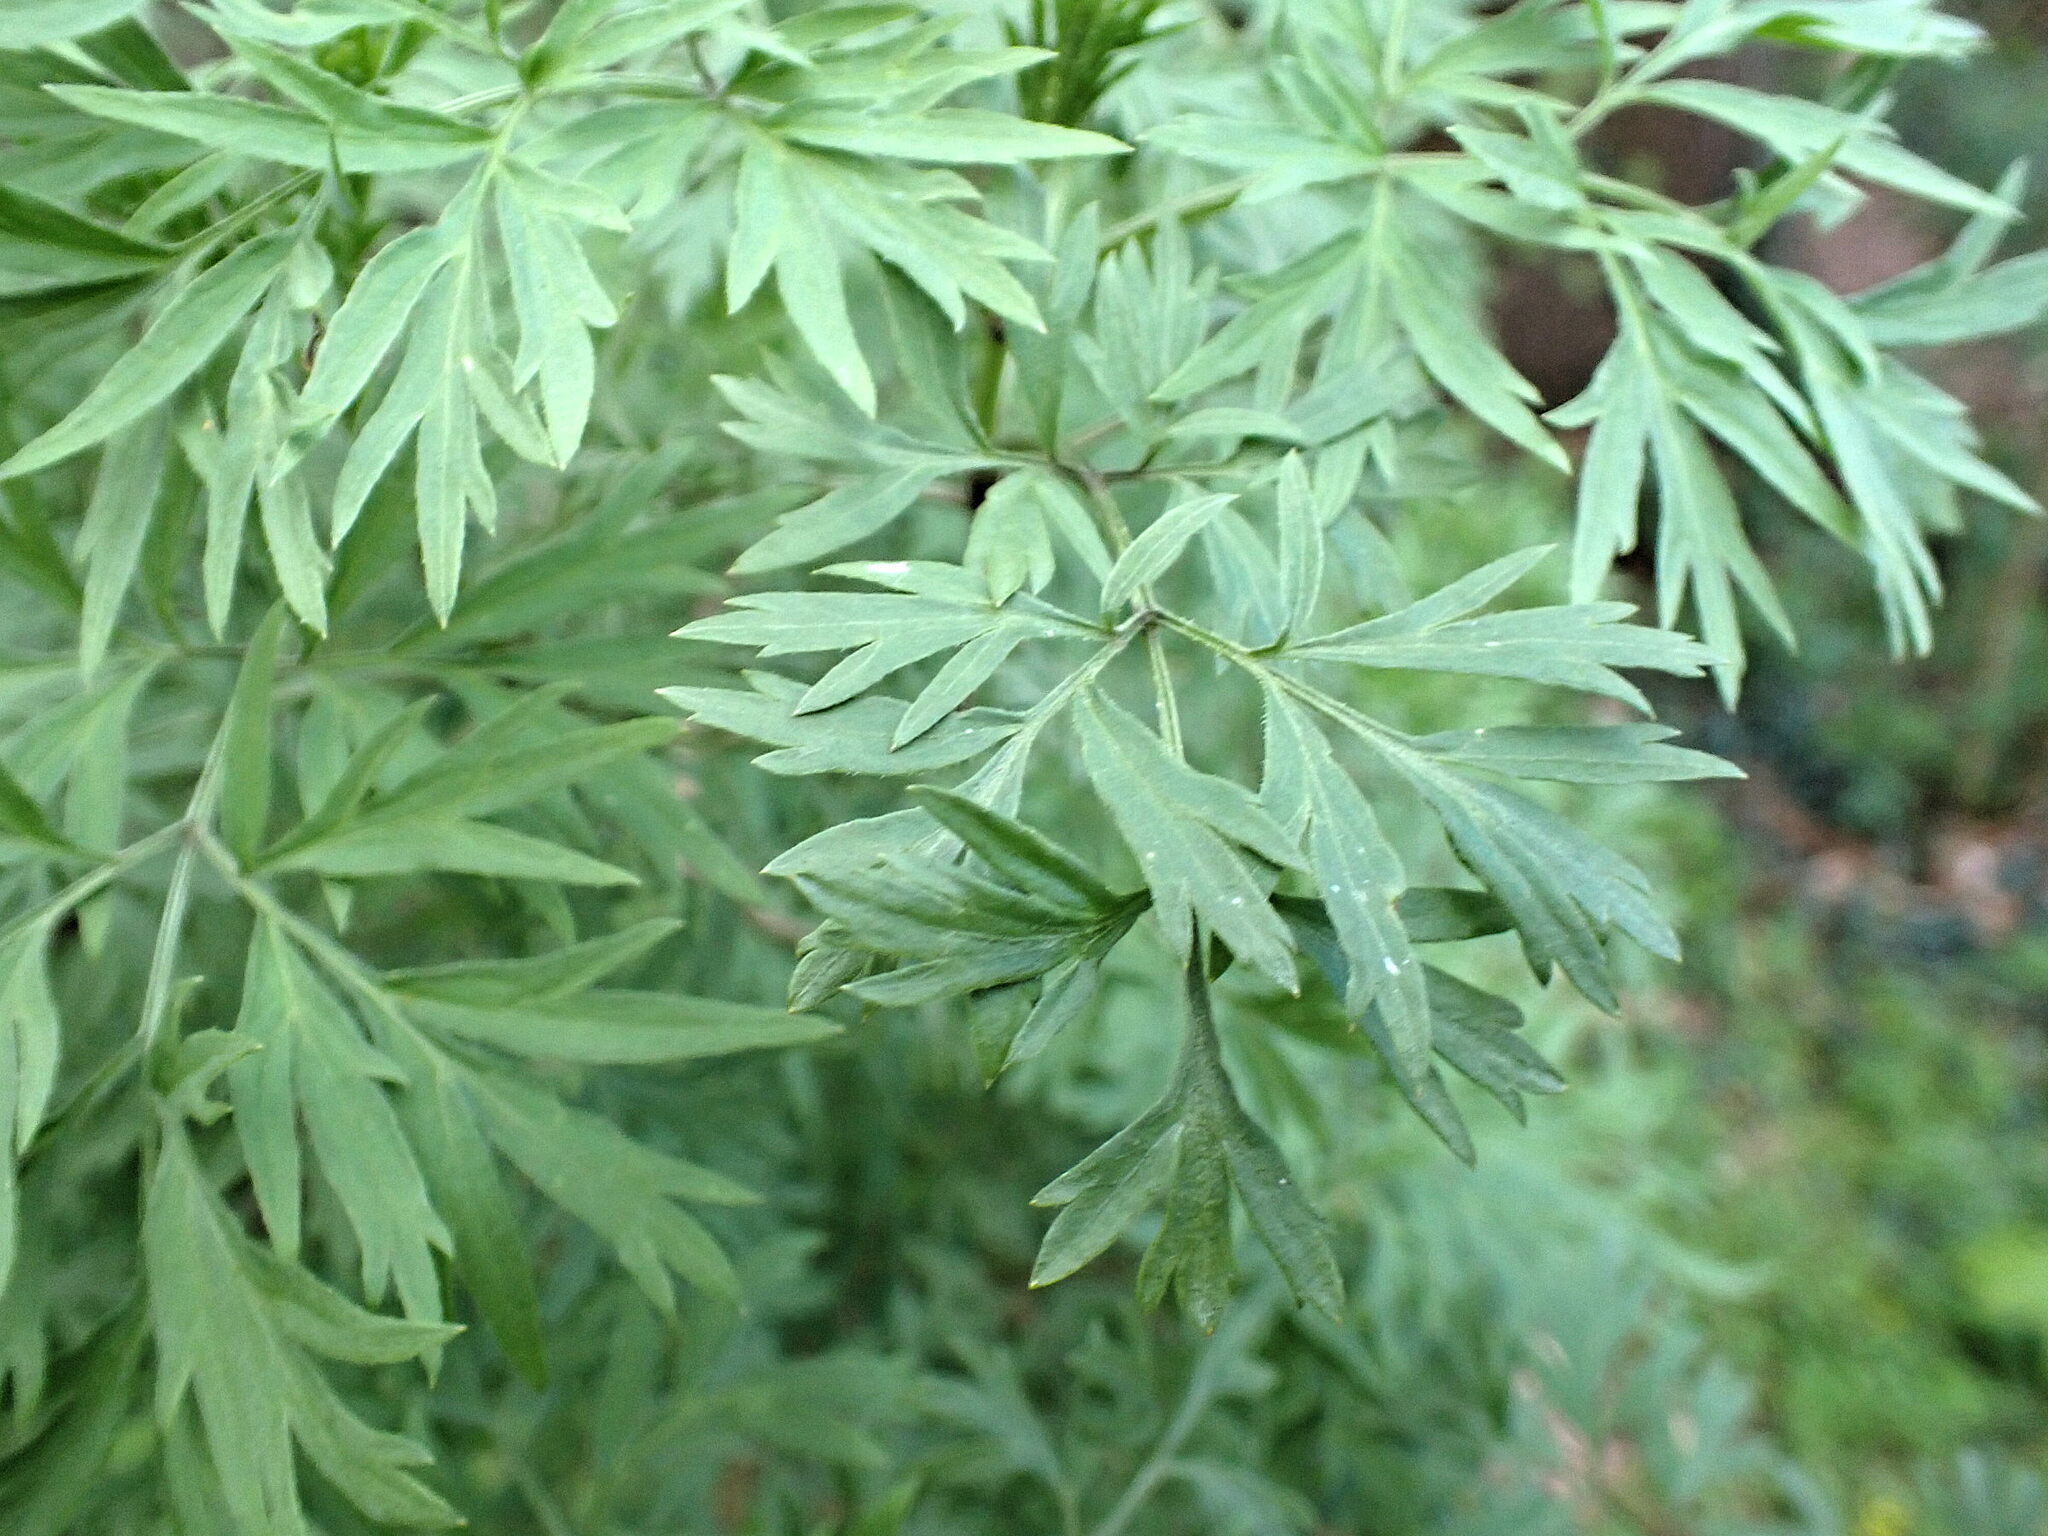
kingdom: Plantae
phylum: Tracheophyta
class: Magnoliopsida
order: Dipsacales
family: Viburnaceae
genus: Sambucus
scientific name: Sambucus nigra
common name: Elder
